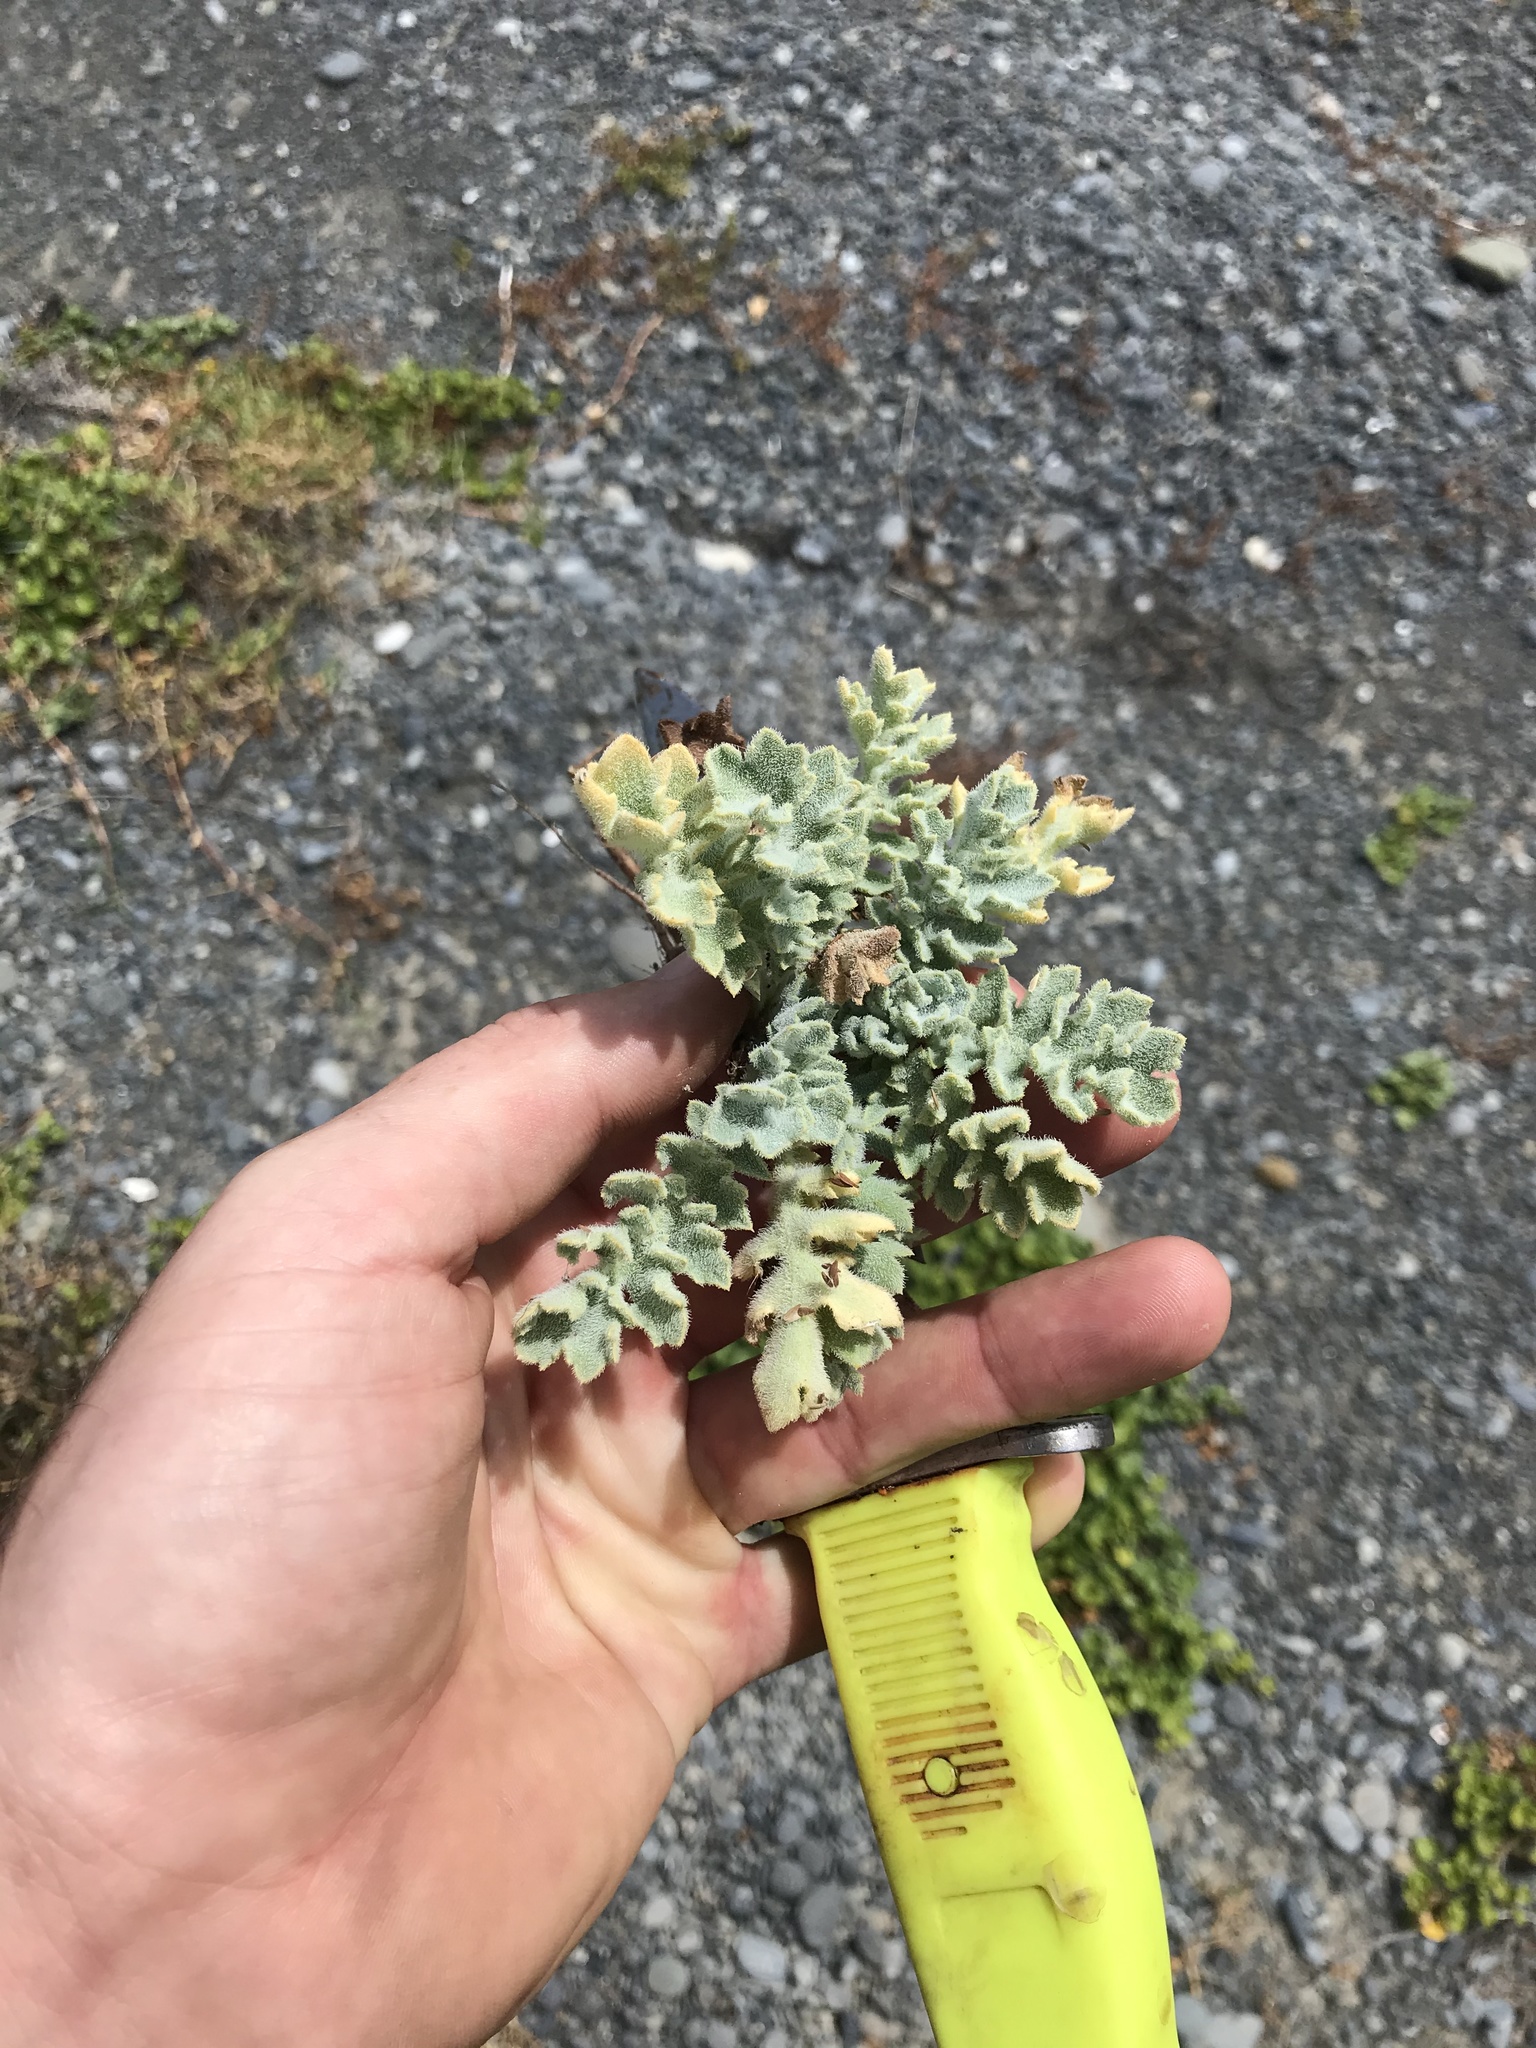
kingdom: Plantae
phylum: Tracheophyta
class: Magnoliopsida
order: Ranunculales
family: Papaveraceae
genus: Glaucium
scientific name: Glaucium flavum
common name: Yellow horned-poppy
